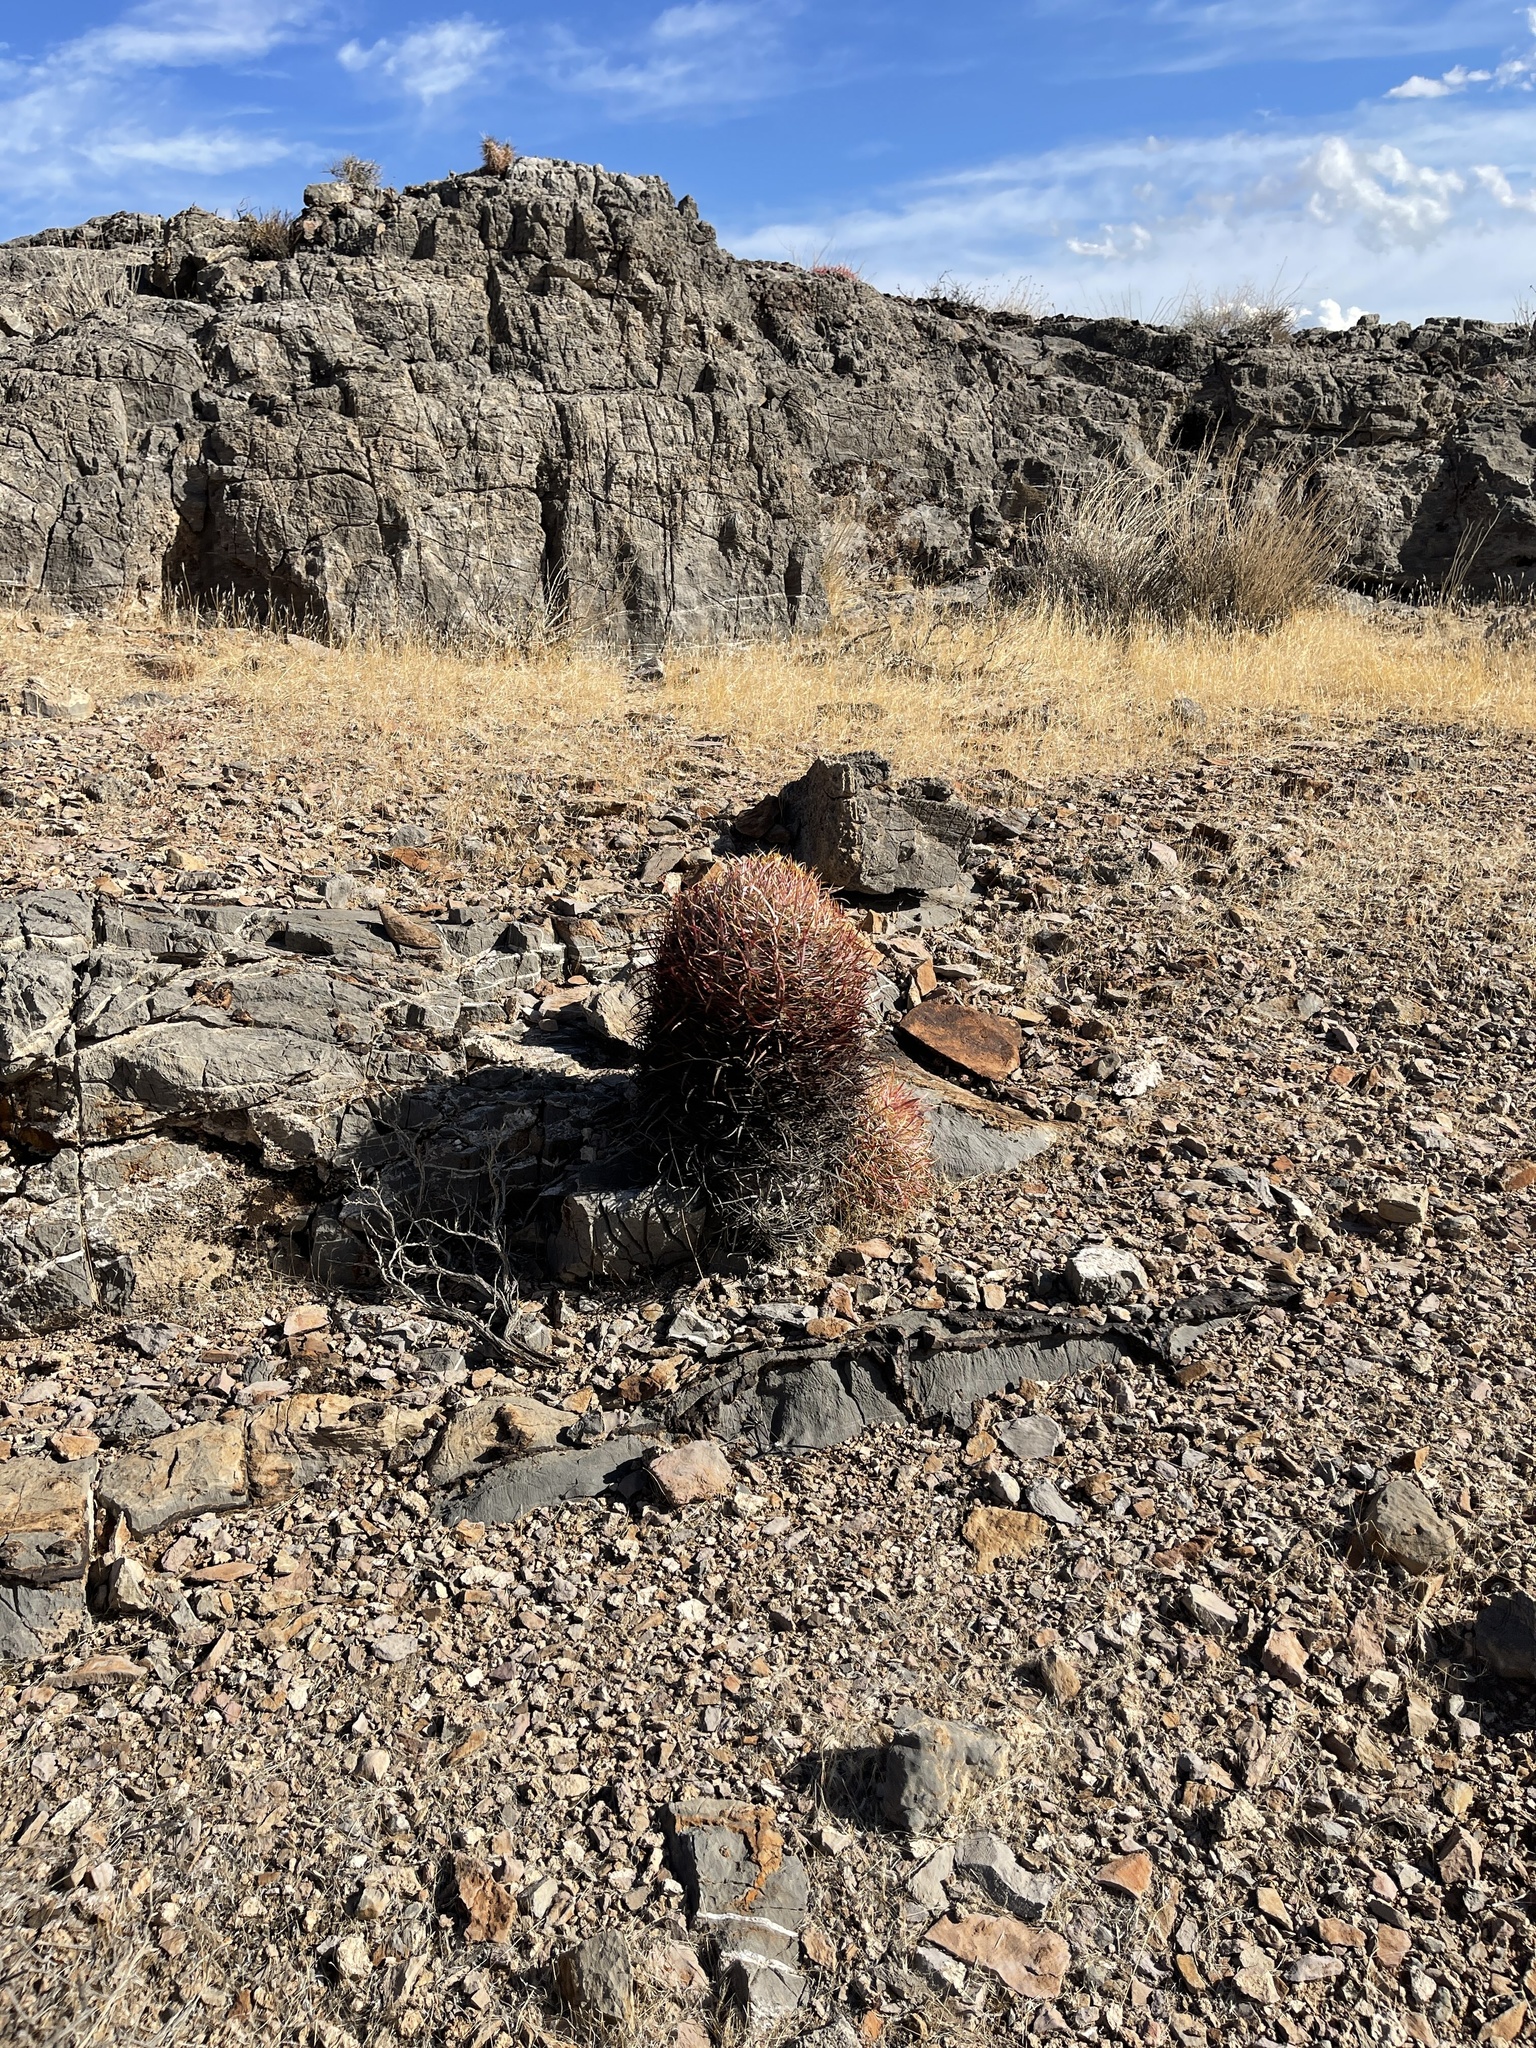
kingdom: Plantae
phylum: Tracheophyta
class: Magnoliopsida
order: Caryophyllales
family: Cactaceae
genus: Ferocactus
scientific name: Ferocactus cylindraceus
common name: California barrel cactus
